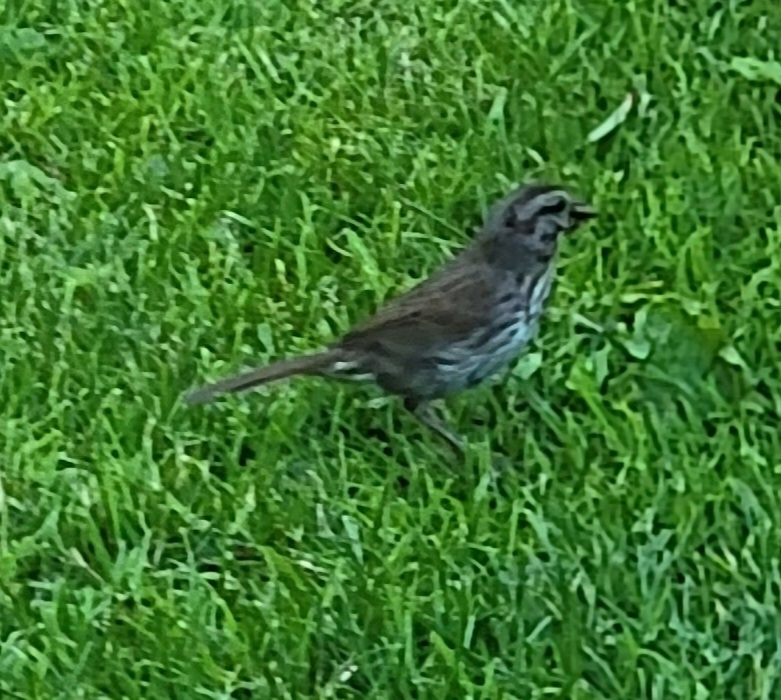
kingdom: Animalia
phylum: Chordata
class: Aves
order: Passeriformes
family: Passerellidae
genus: Melospiza
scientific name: Melospiza melodia
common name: Song sparrow
